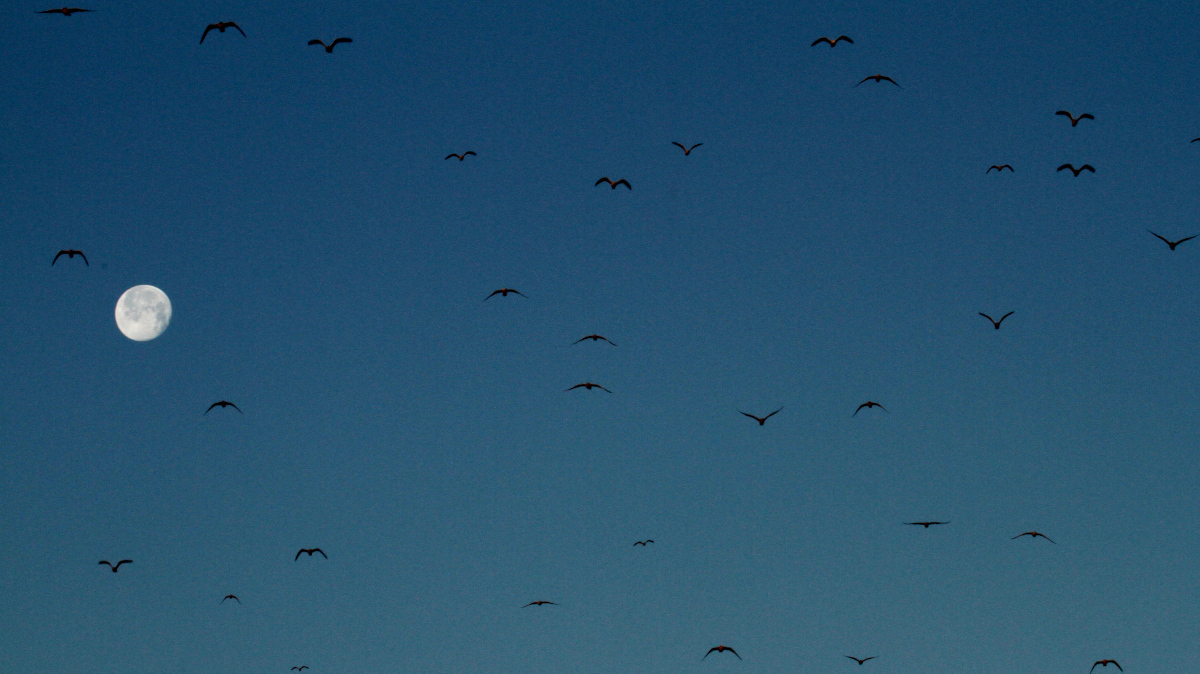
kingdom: Animalia
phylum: Chordata
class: Aves
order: Charadriiformes
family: Laridae
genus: Larus
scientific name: Larus delawarensis
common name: Ring-billed gull
